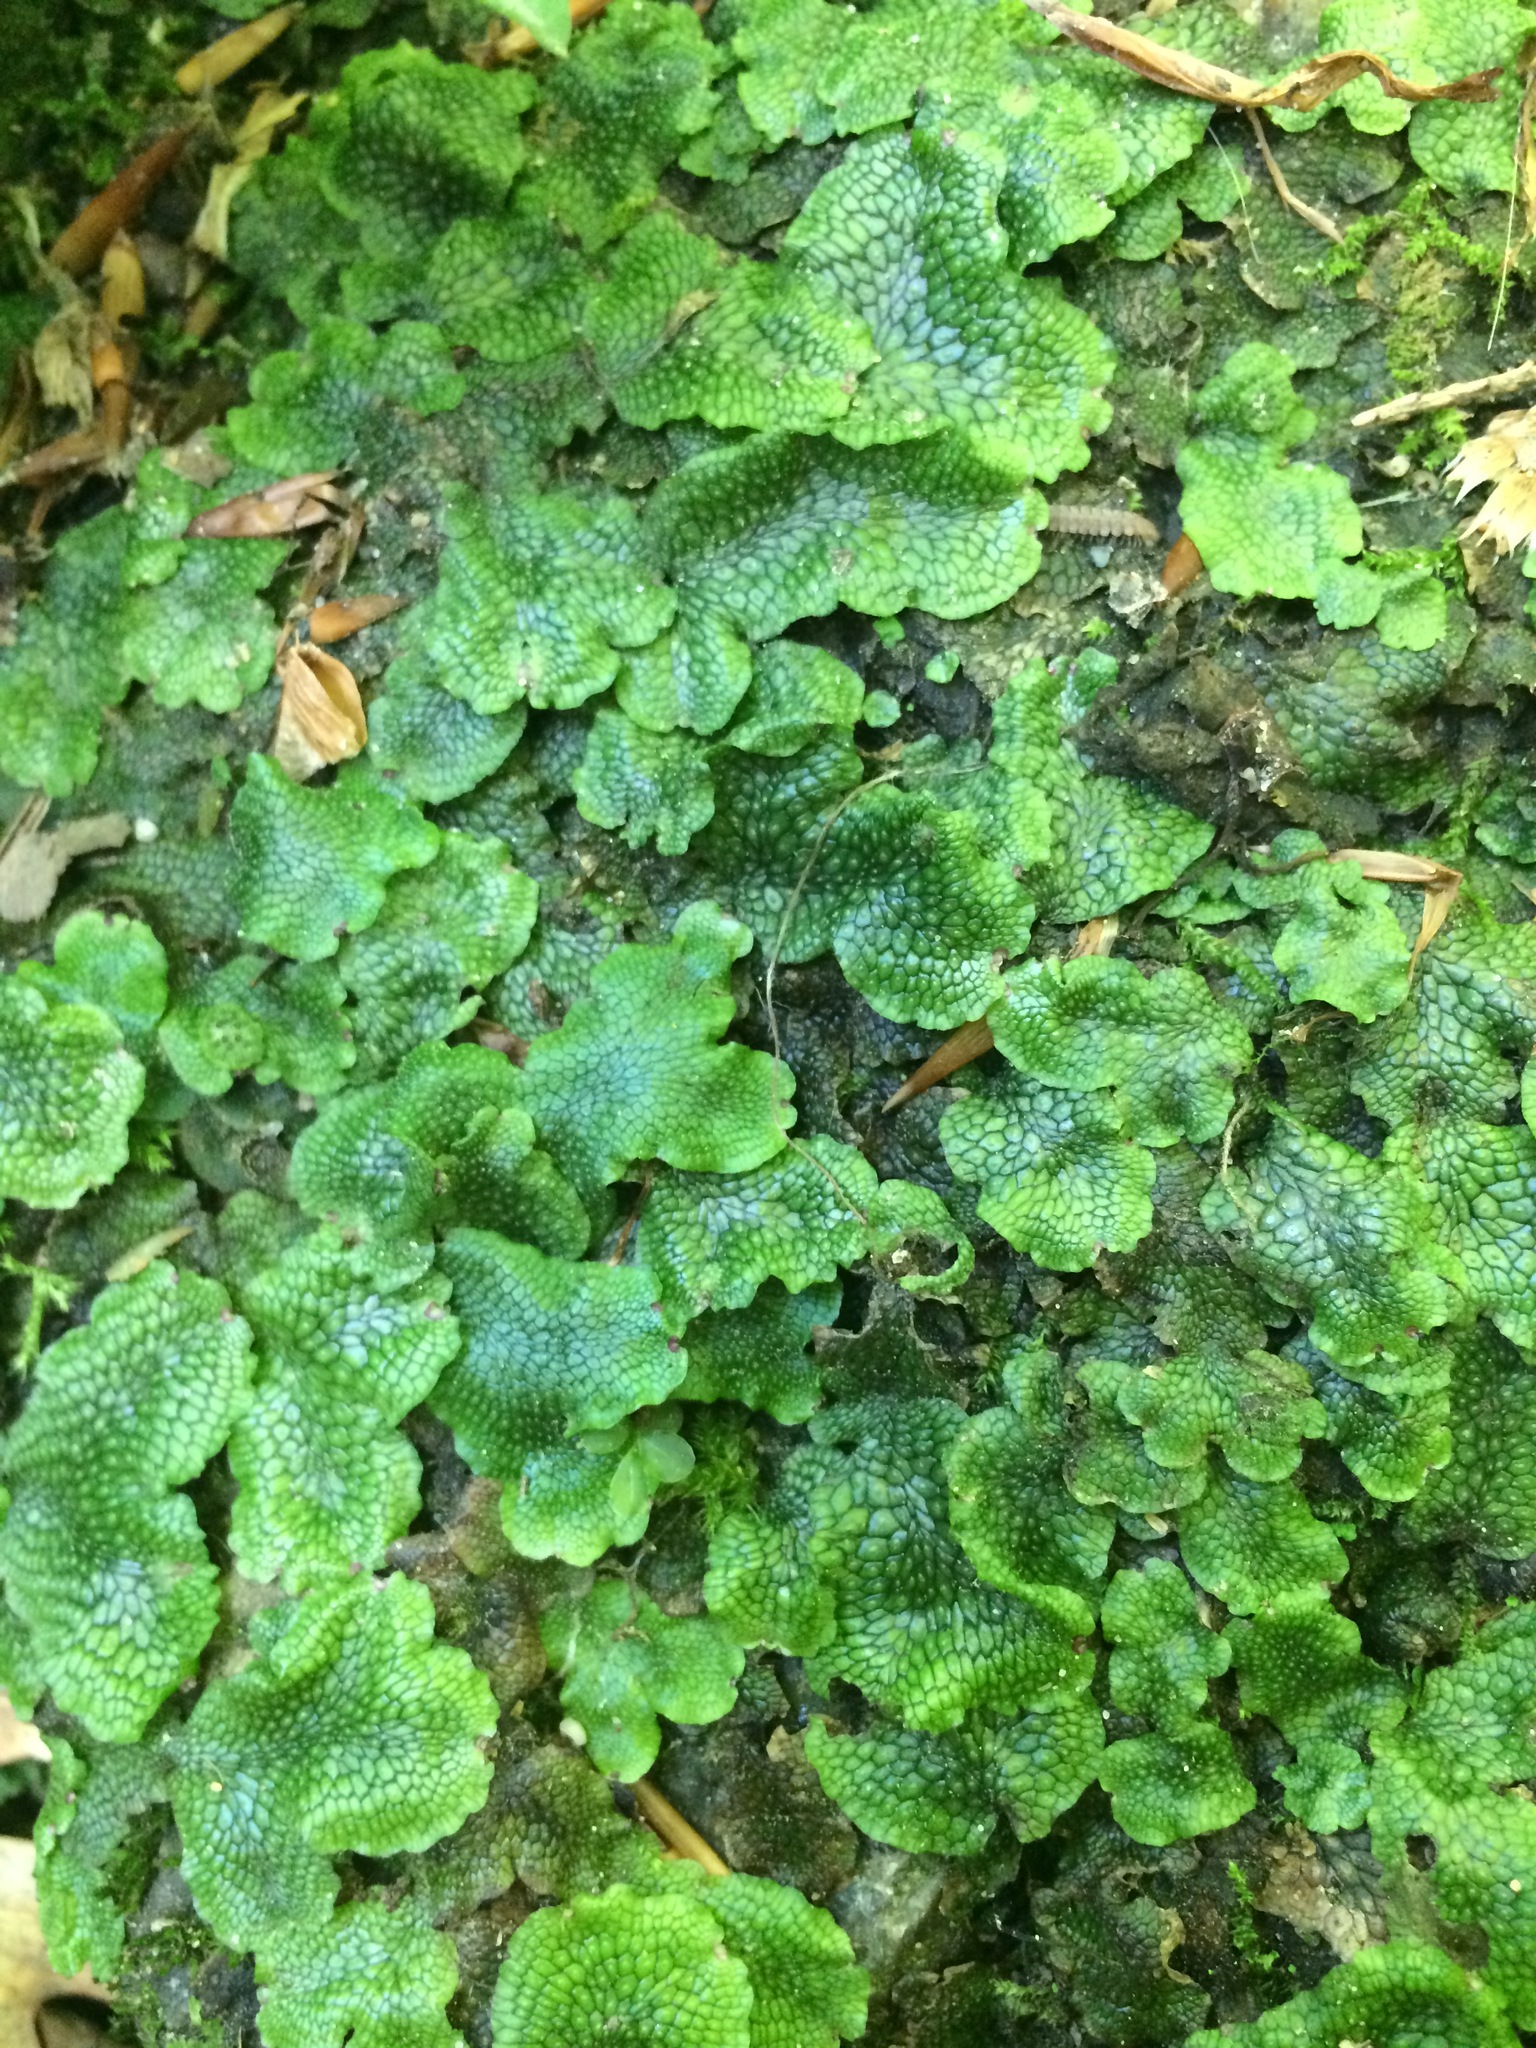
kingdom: Plantae
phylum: Marchantiophyta
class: Marchantiopsida
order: Marchantiales
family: Conocephalaceae
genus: Conocephalum
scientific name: Conocephalum salebrosum
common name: Cat-tongue liverwort
